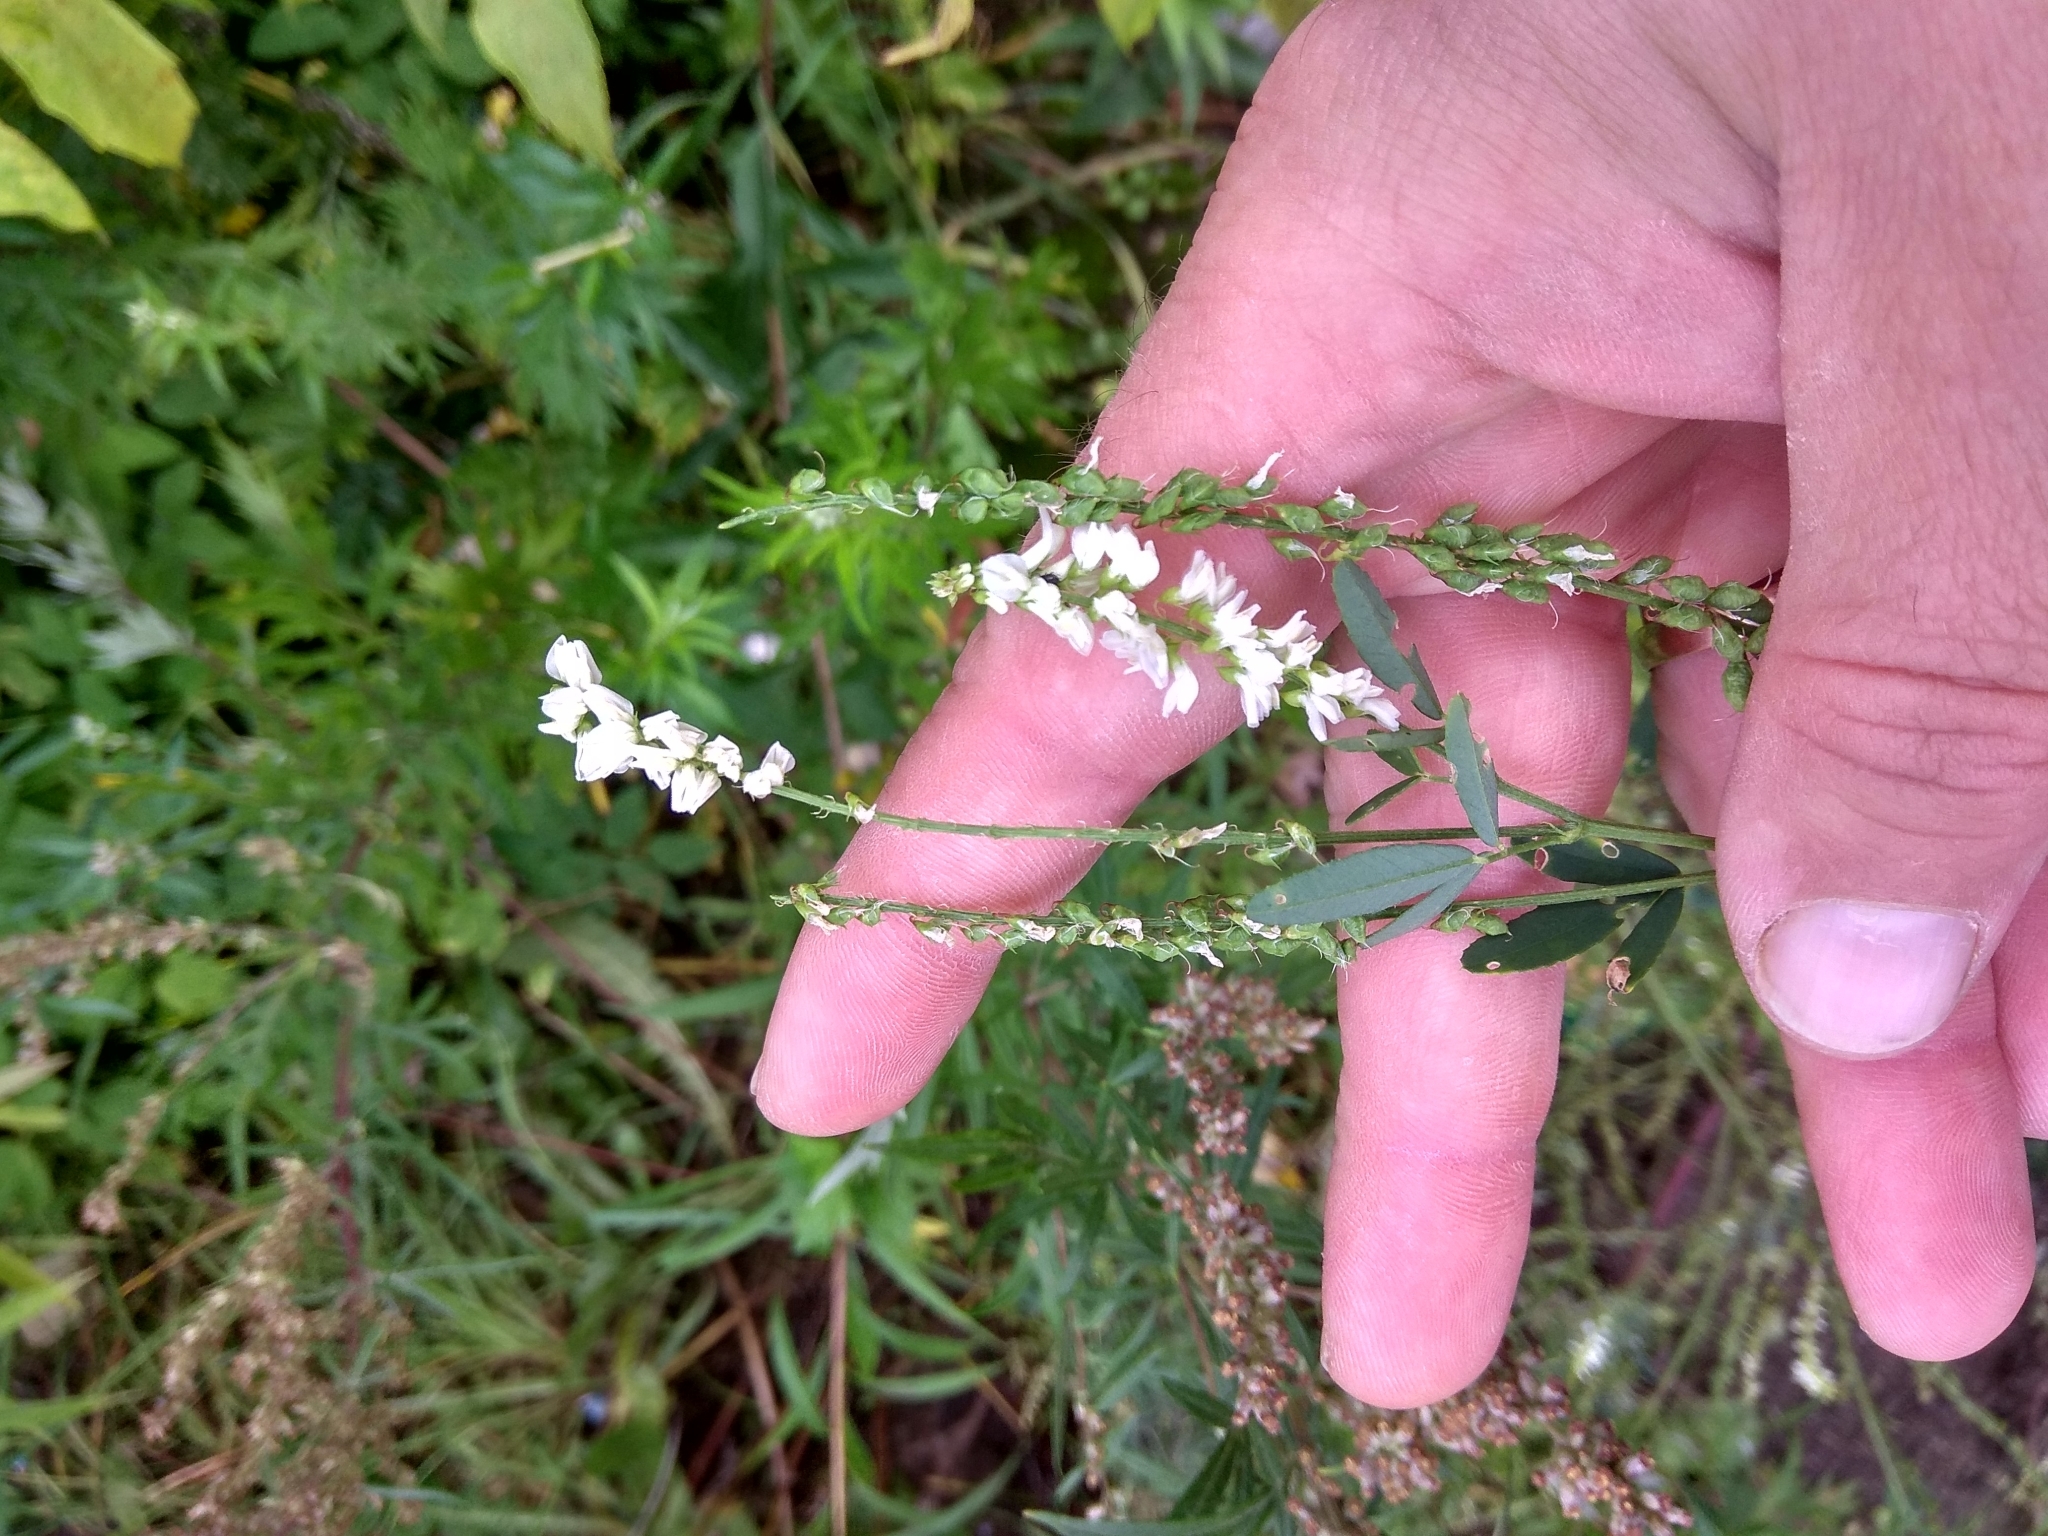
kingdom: Plantae
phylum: Tracheophyta
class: Magnoliopsida
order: Fabales
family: Fabaceae
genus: Melilotus
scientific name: Melilotus albus
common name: White melilot
